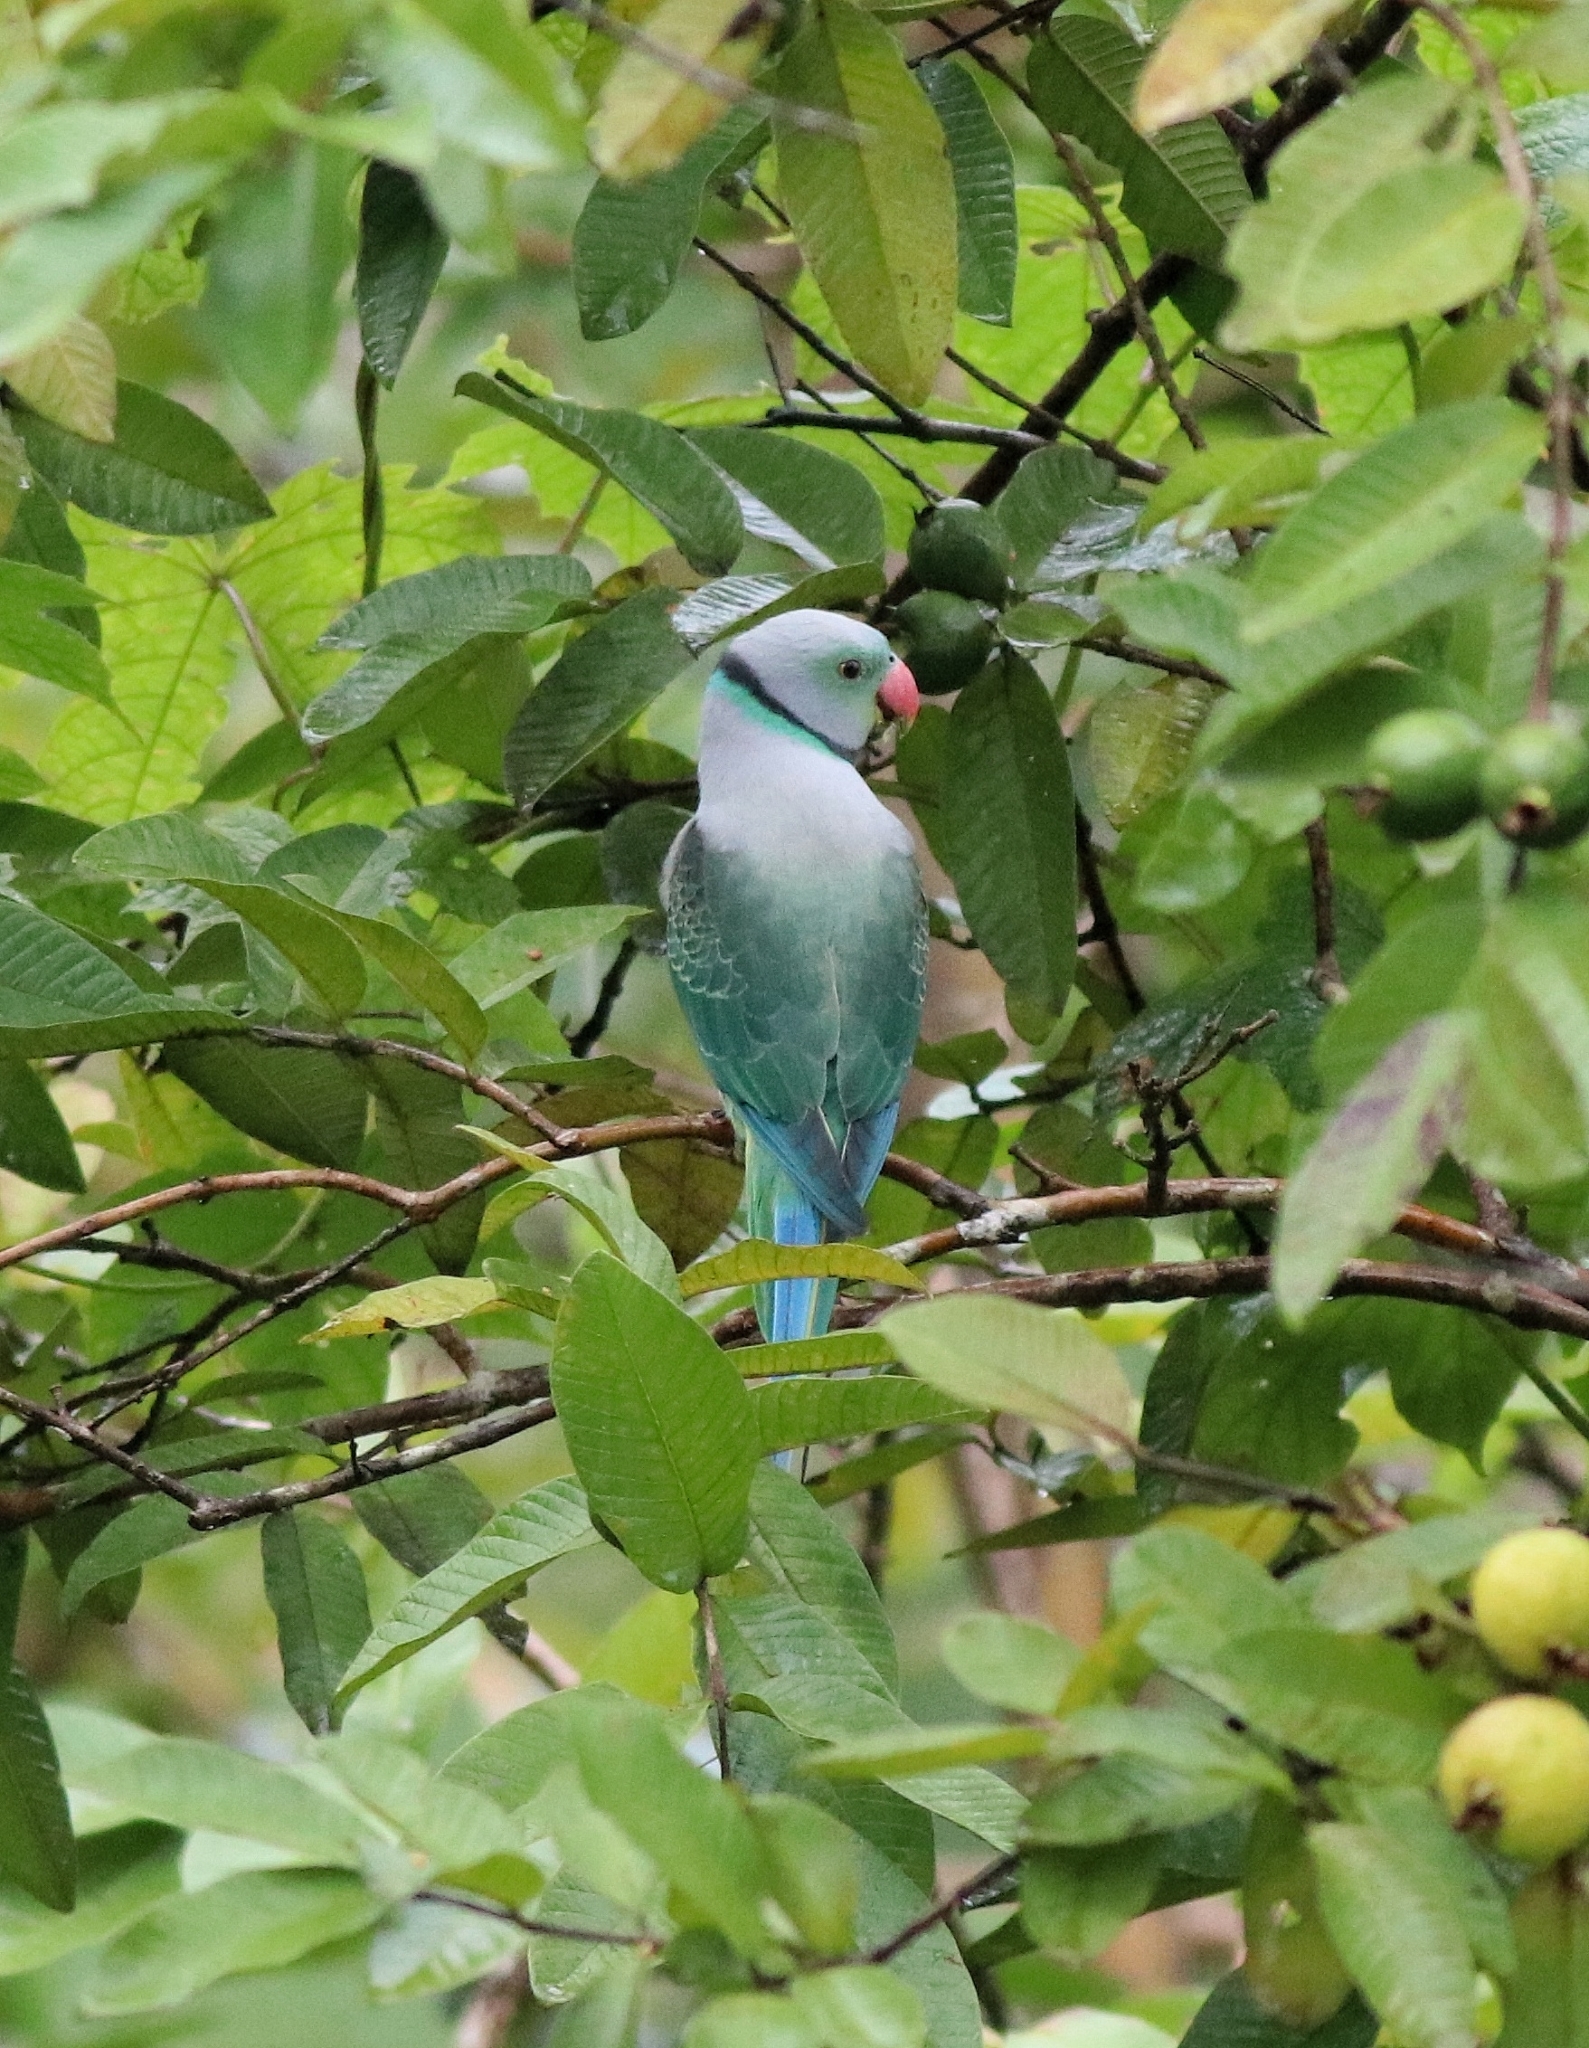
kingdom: Animalia
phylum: Chordata
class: Aves
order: Psittaciformes
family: Psittacidae
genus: Psittacula
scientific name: Psittacula columboides
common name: Blue-winged parakeet
